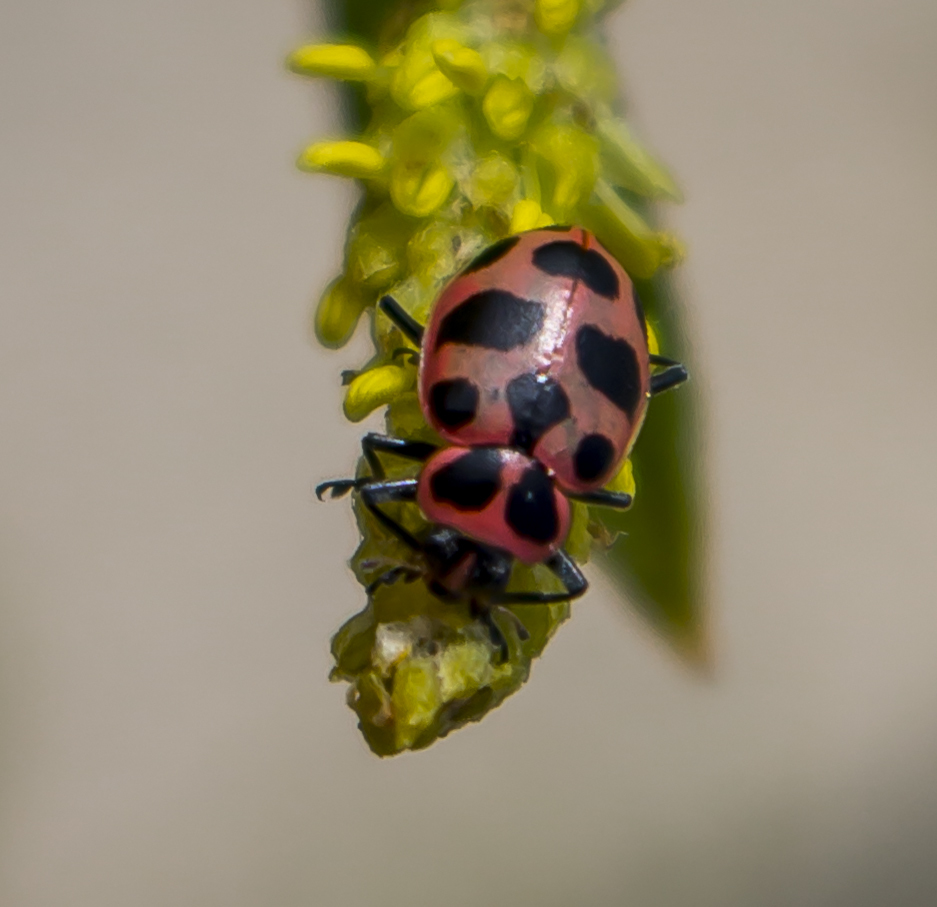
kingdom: Animalia
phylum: Arthropoda
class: Insecta
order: Coleoptera
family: Coccinellidae
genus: Coleomegilla
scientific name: Coleomegilla maculata
